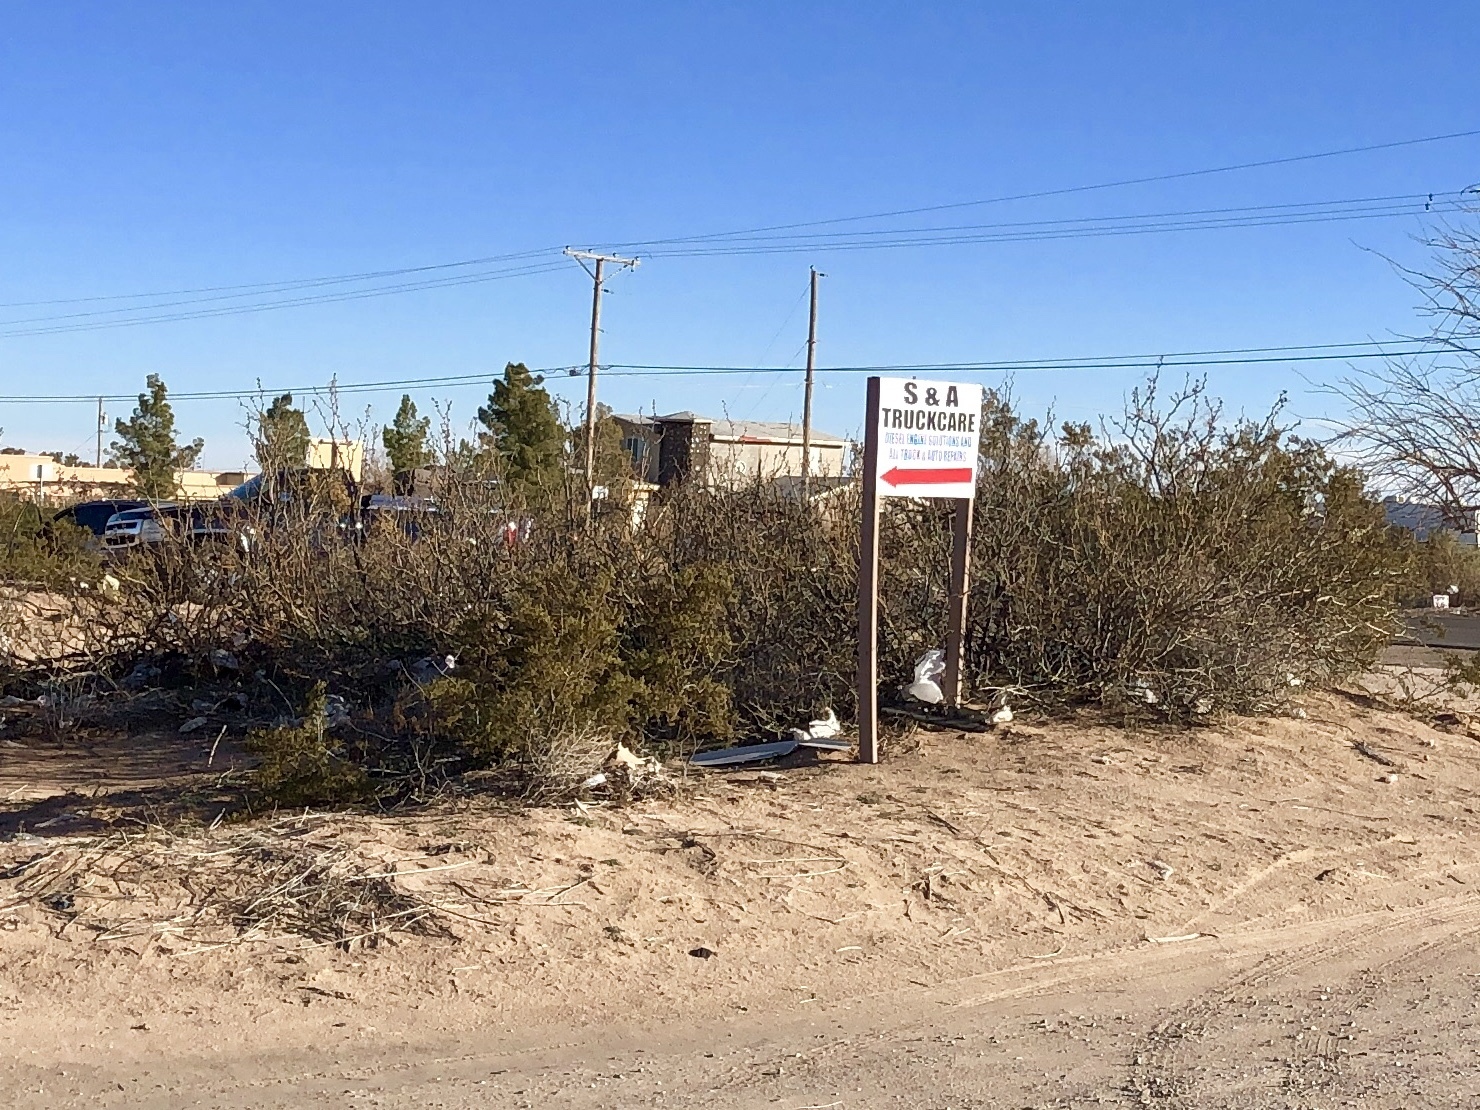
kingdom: Plantae
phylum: Tracheophyta
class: Magnoliopsida
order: Zygophyllales
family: Zygophyllaceae
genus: Larrea
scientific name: Larrea tridentata
